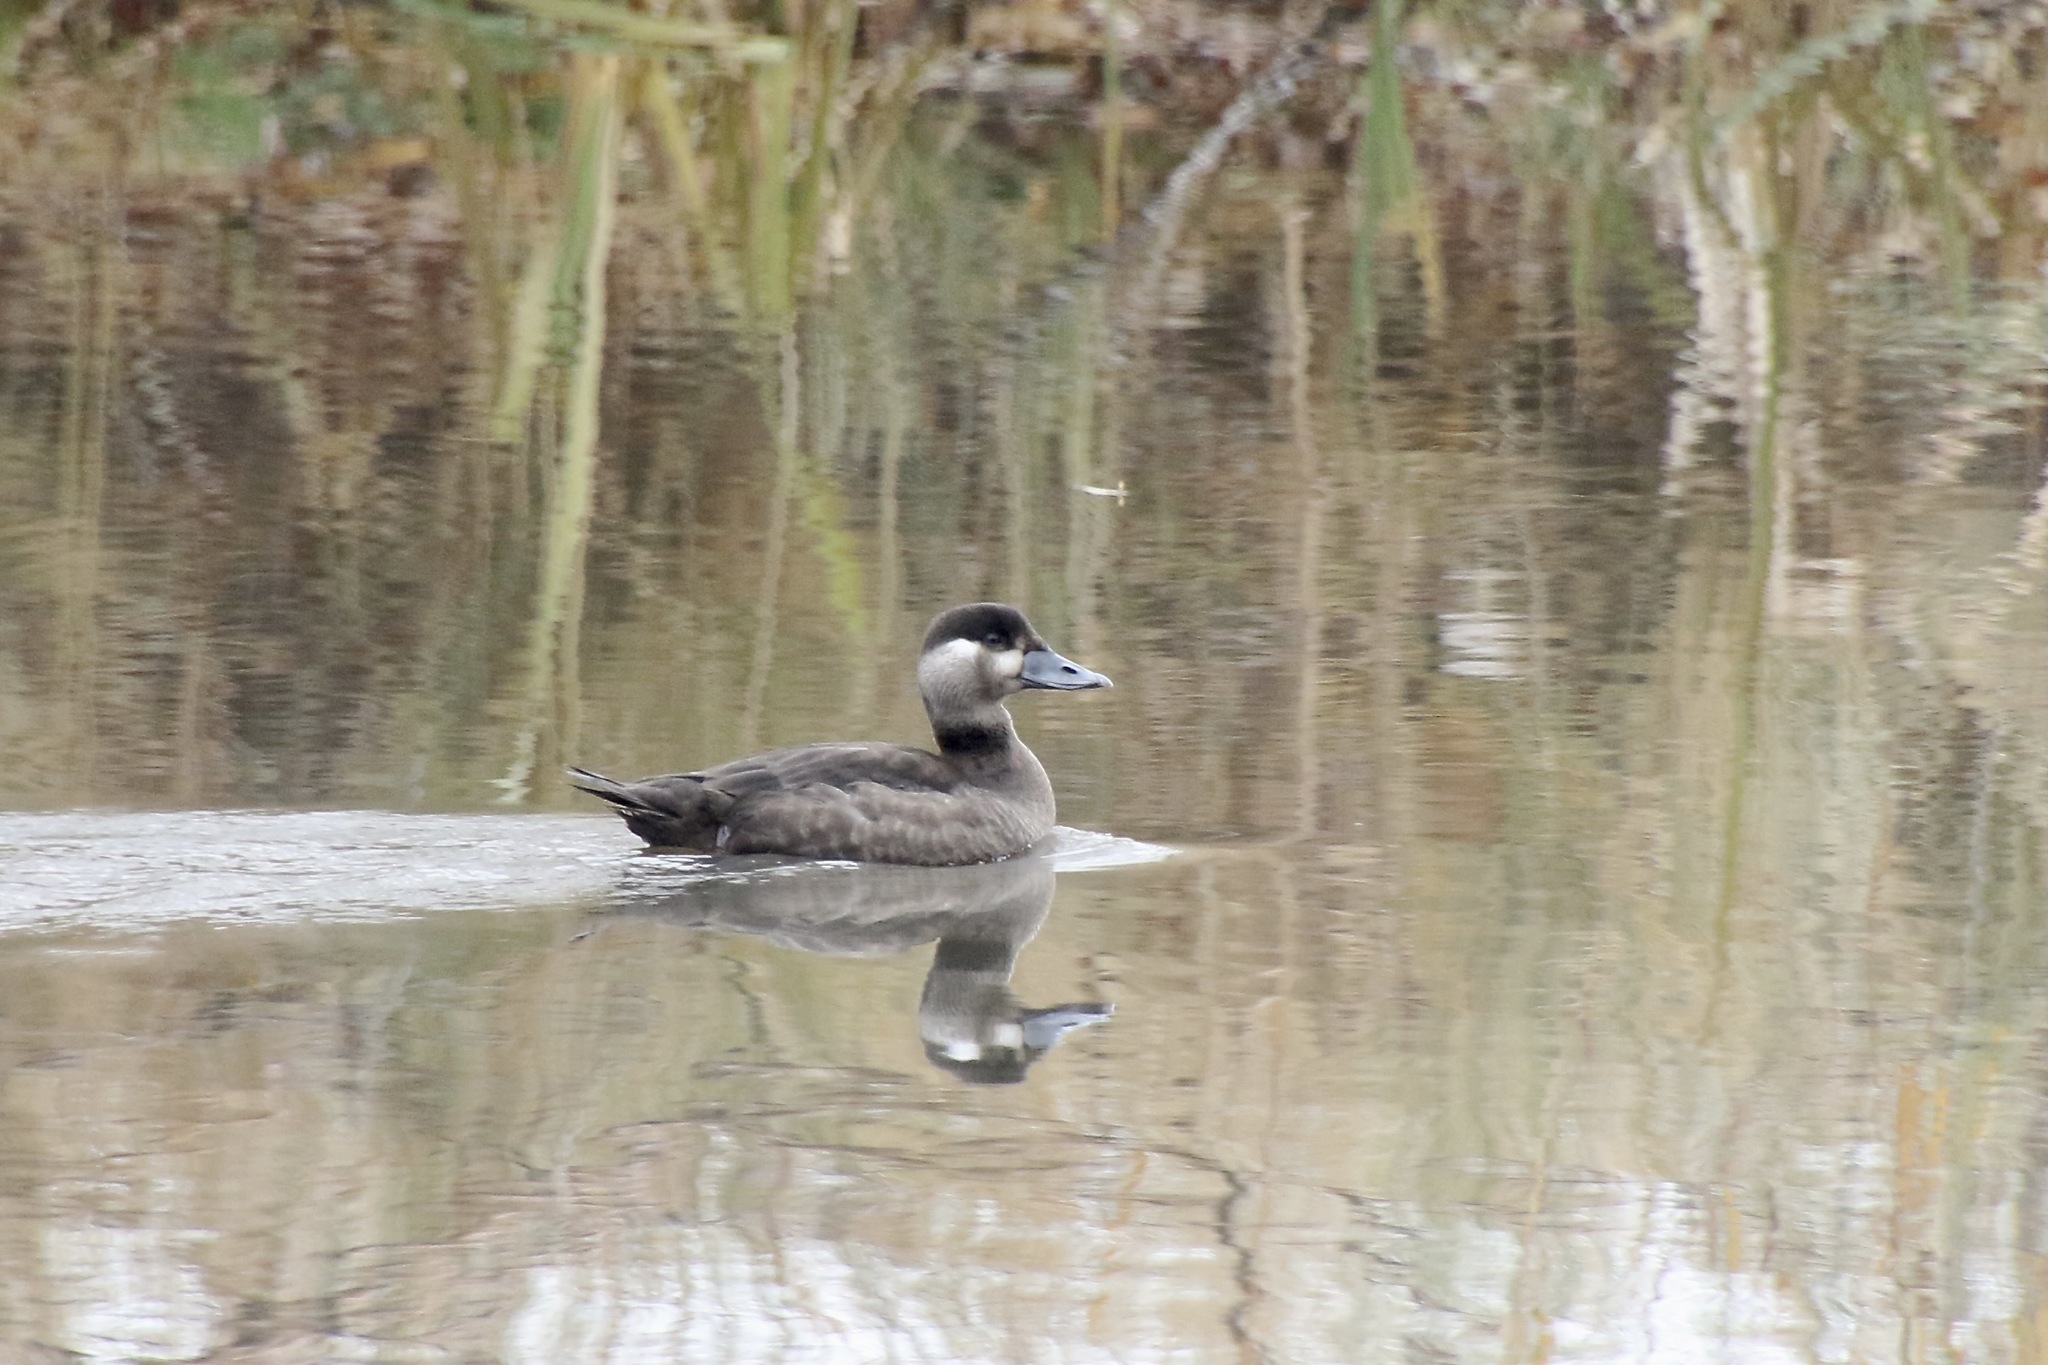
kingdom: Animalia
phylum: Chordata
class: Aves
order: Anseriformes
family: Anatidae
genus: Melanitta
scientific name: Melanitta perspicillata
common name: Surf scoter
